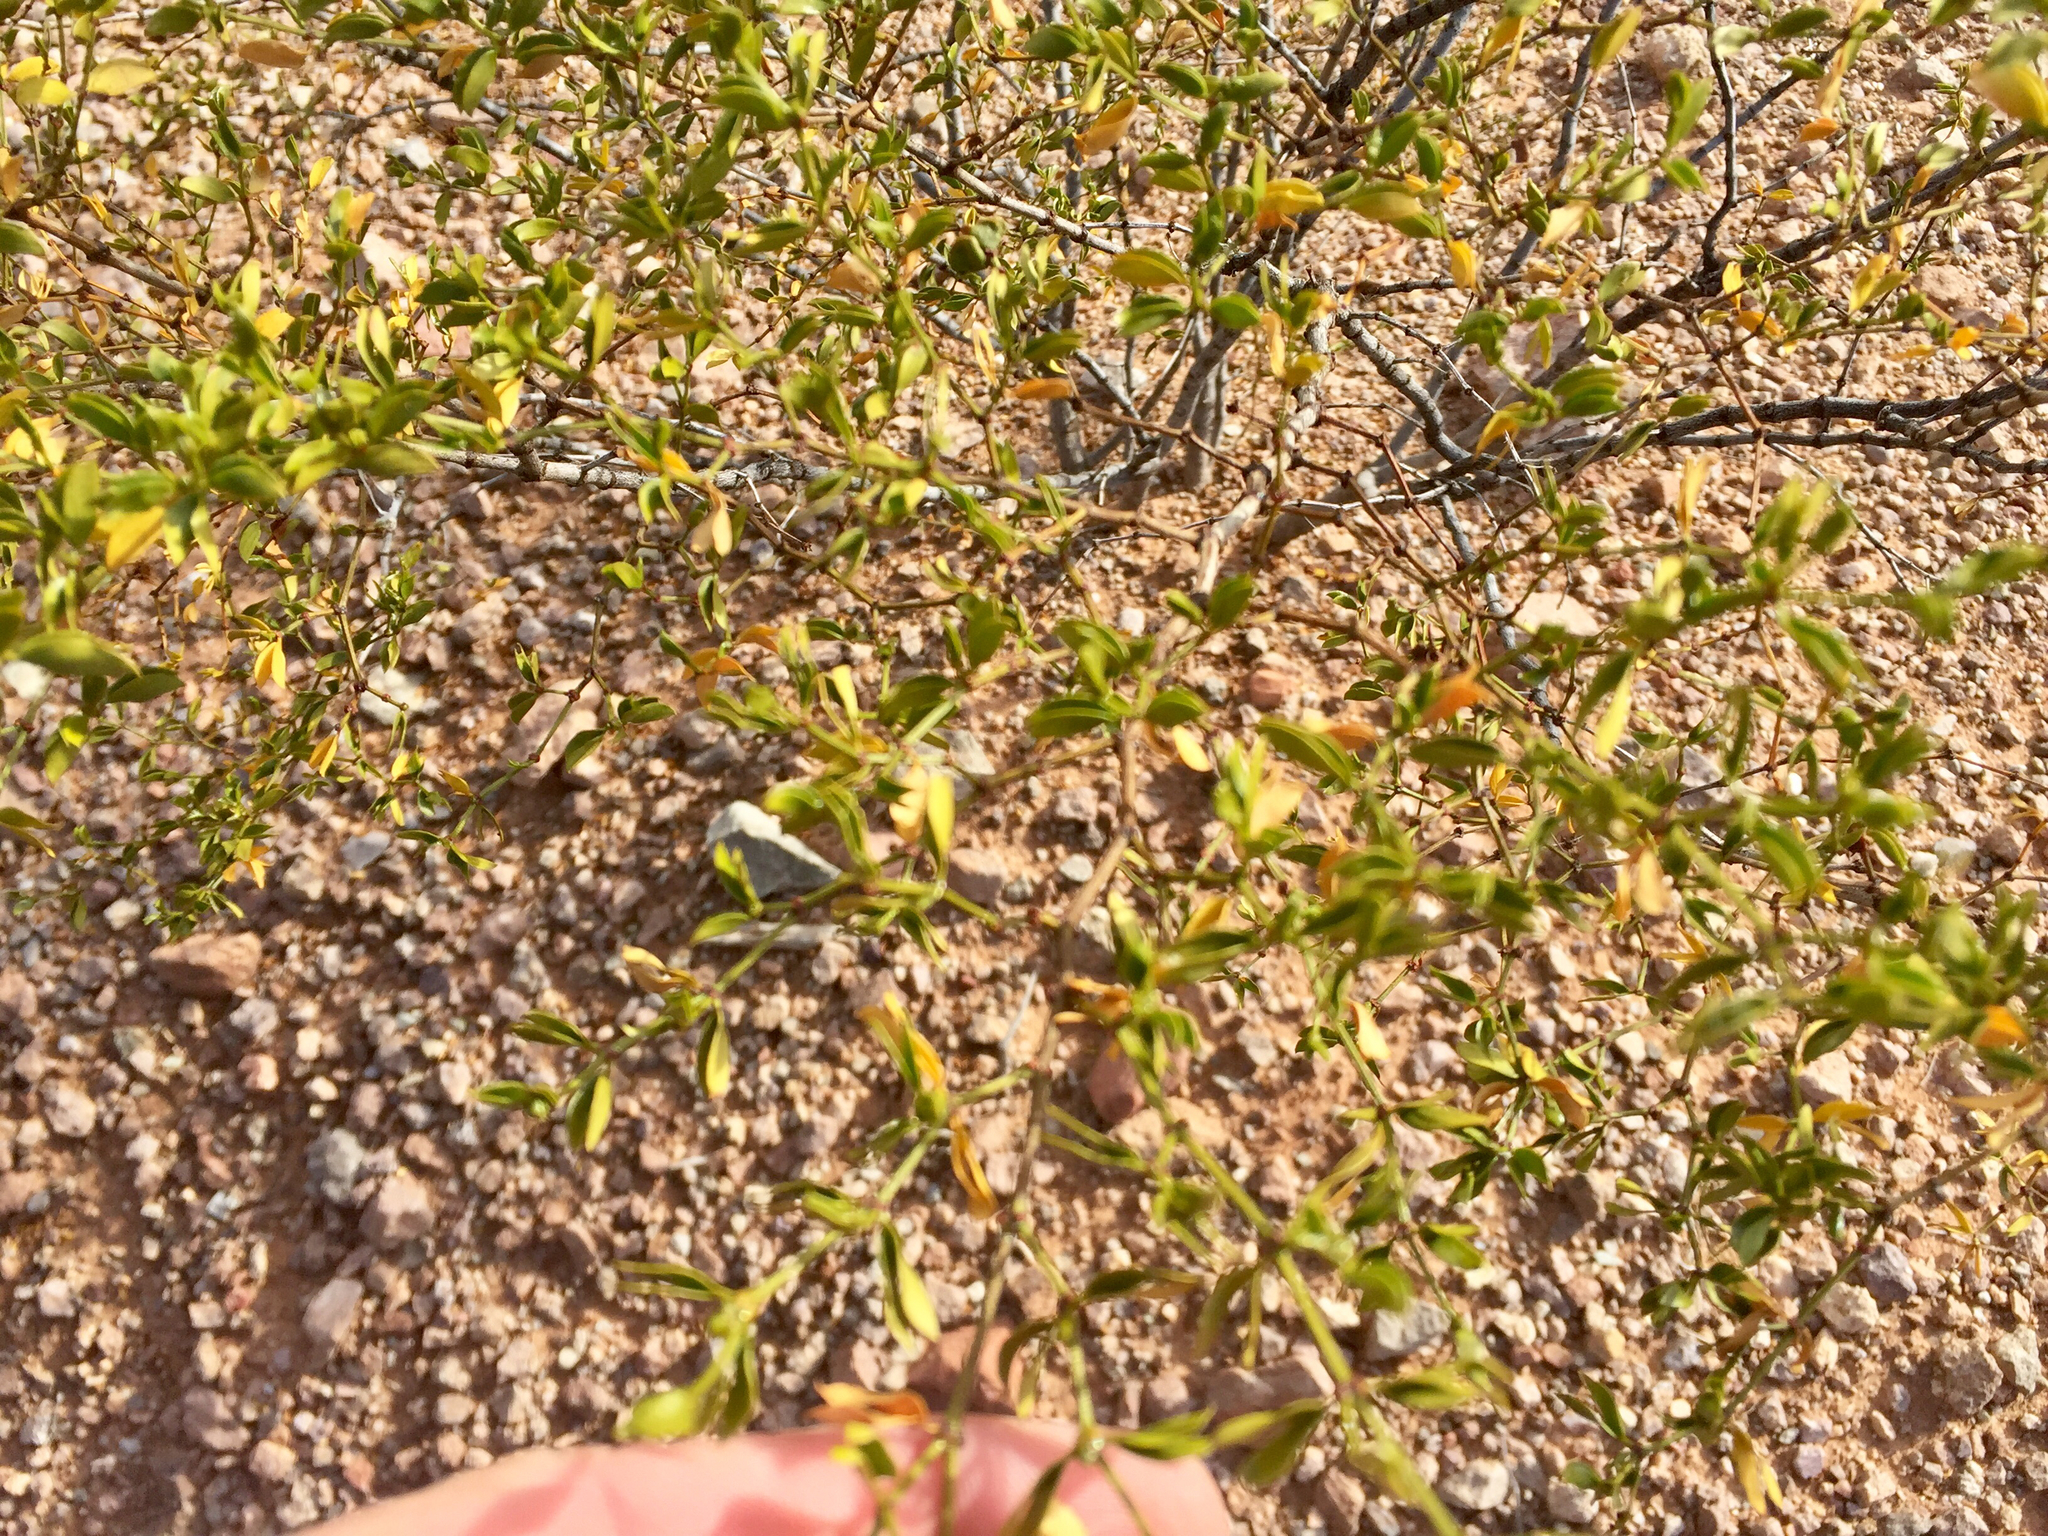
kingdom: Plantae
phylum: Tracheophyta
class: Magnoliopsida
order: Zygophyllales
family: Zygophyllaceae
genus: Larrea
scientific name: Larrea tridentata
